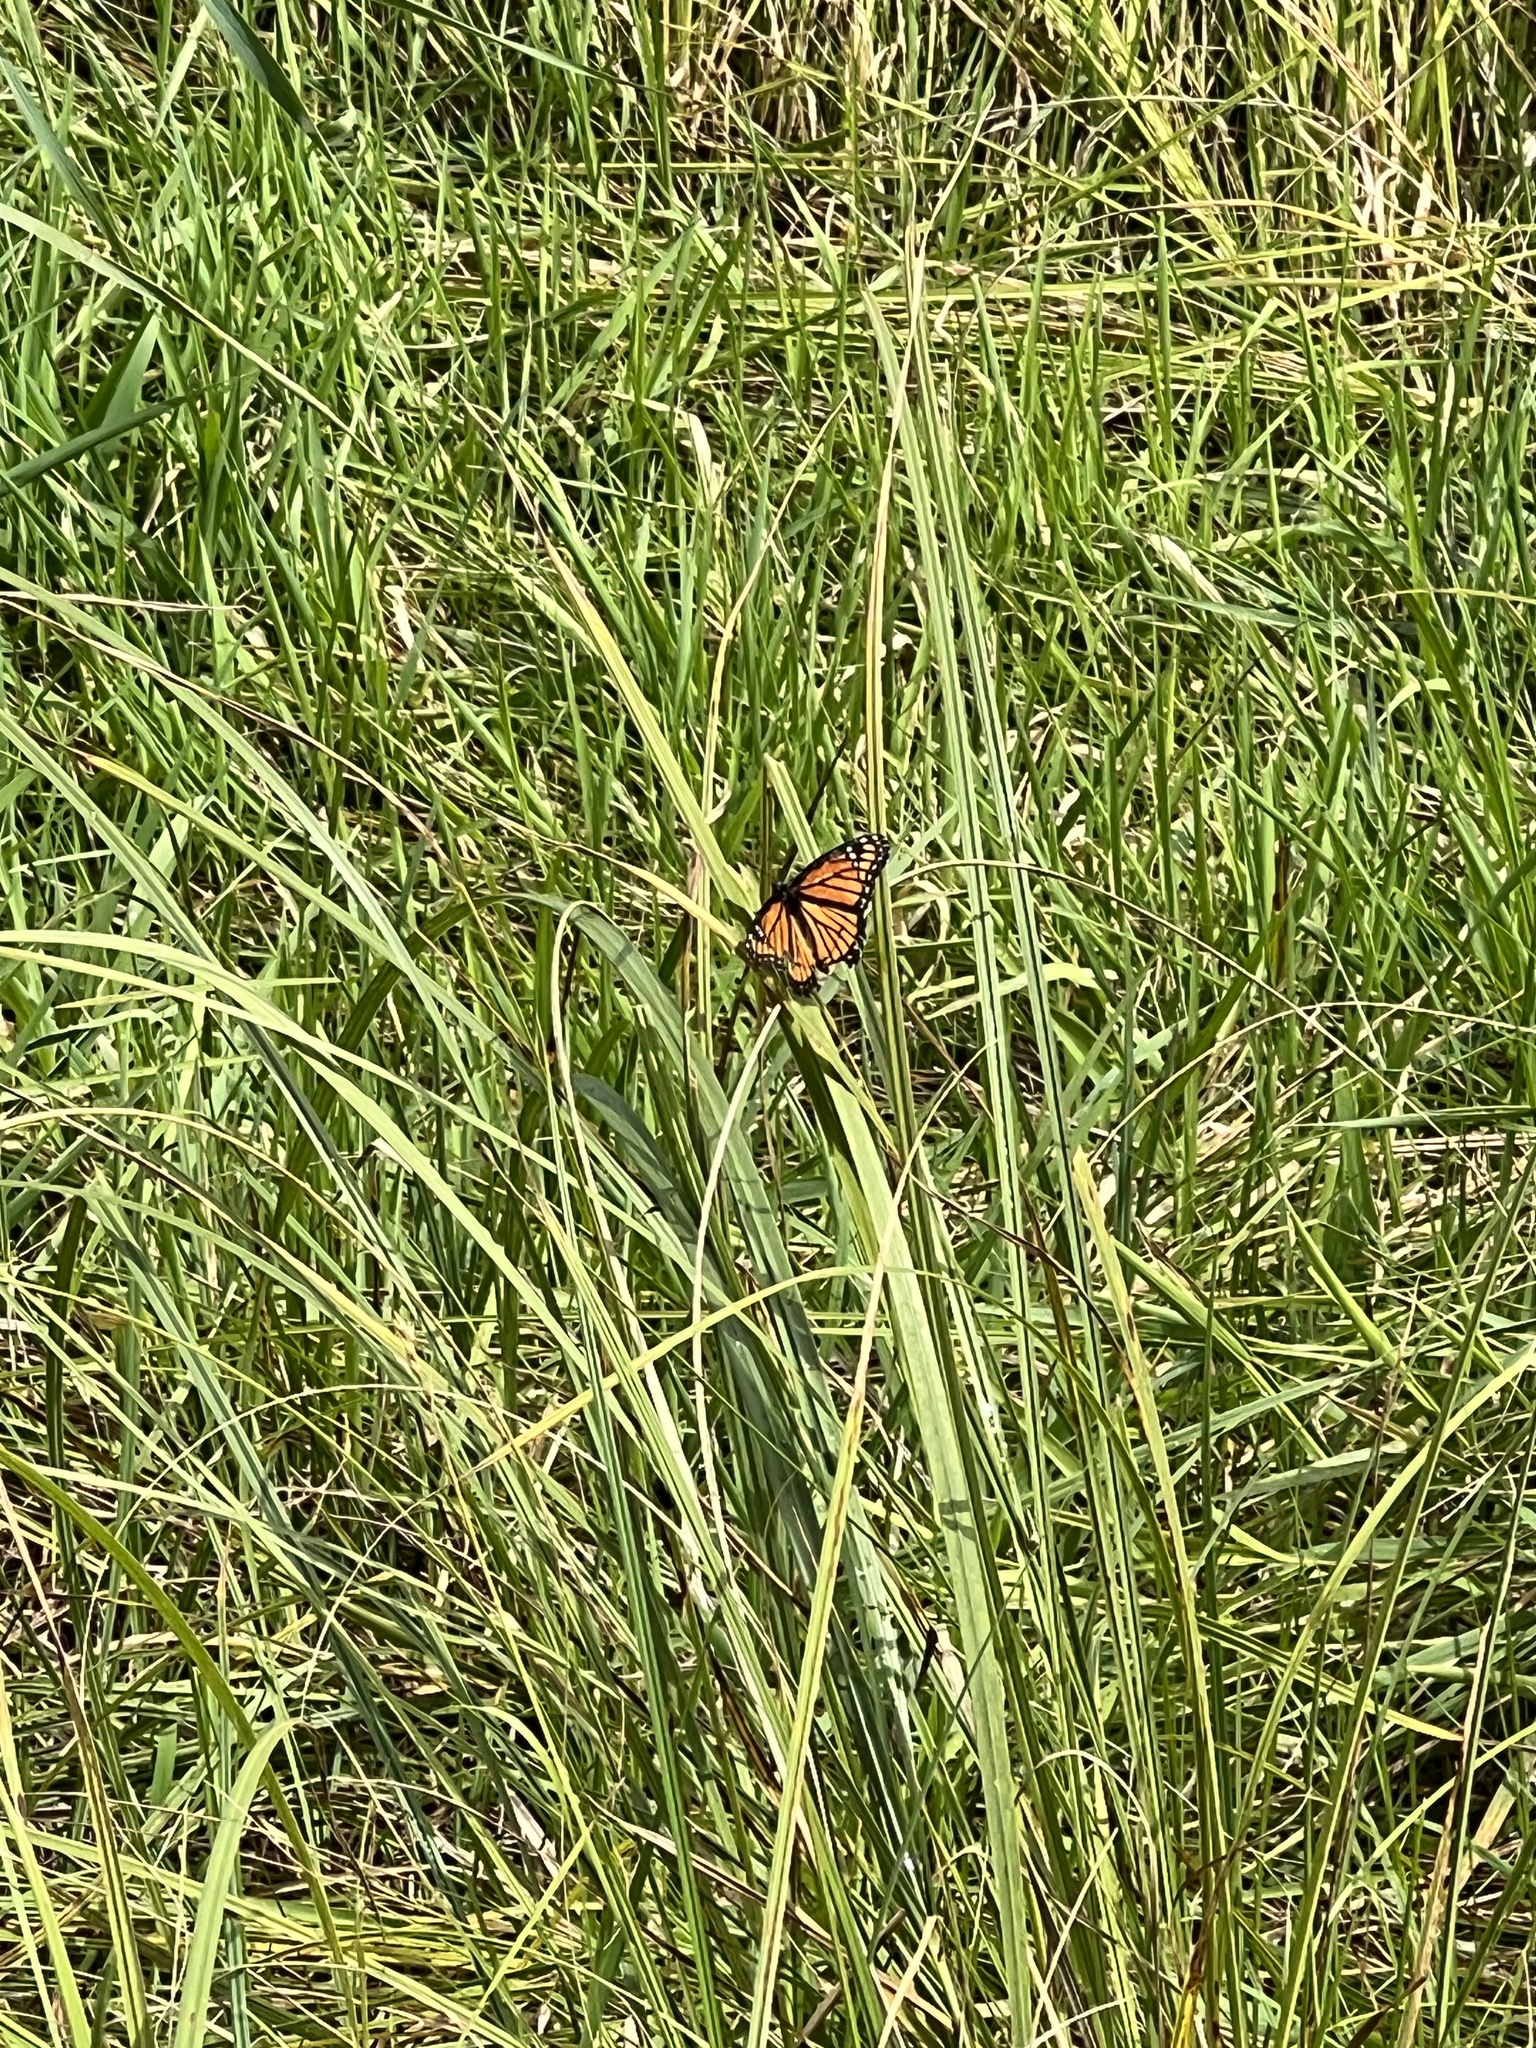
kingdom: Animalia
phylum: Arthropoda
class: Insecta
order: Lepidoptera
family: Nymphalidae
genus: Limenitis
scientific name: Limenitis archippus
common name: Viceroy
